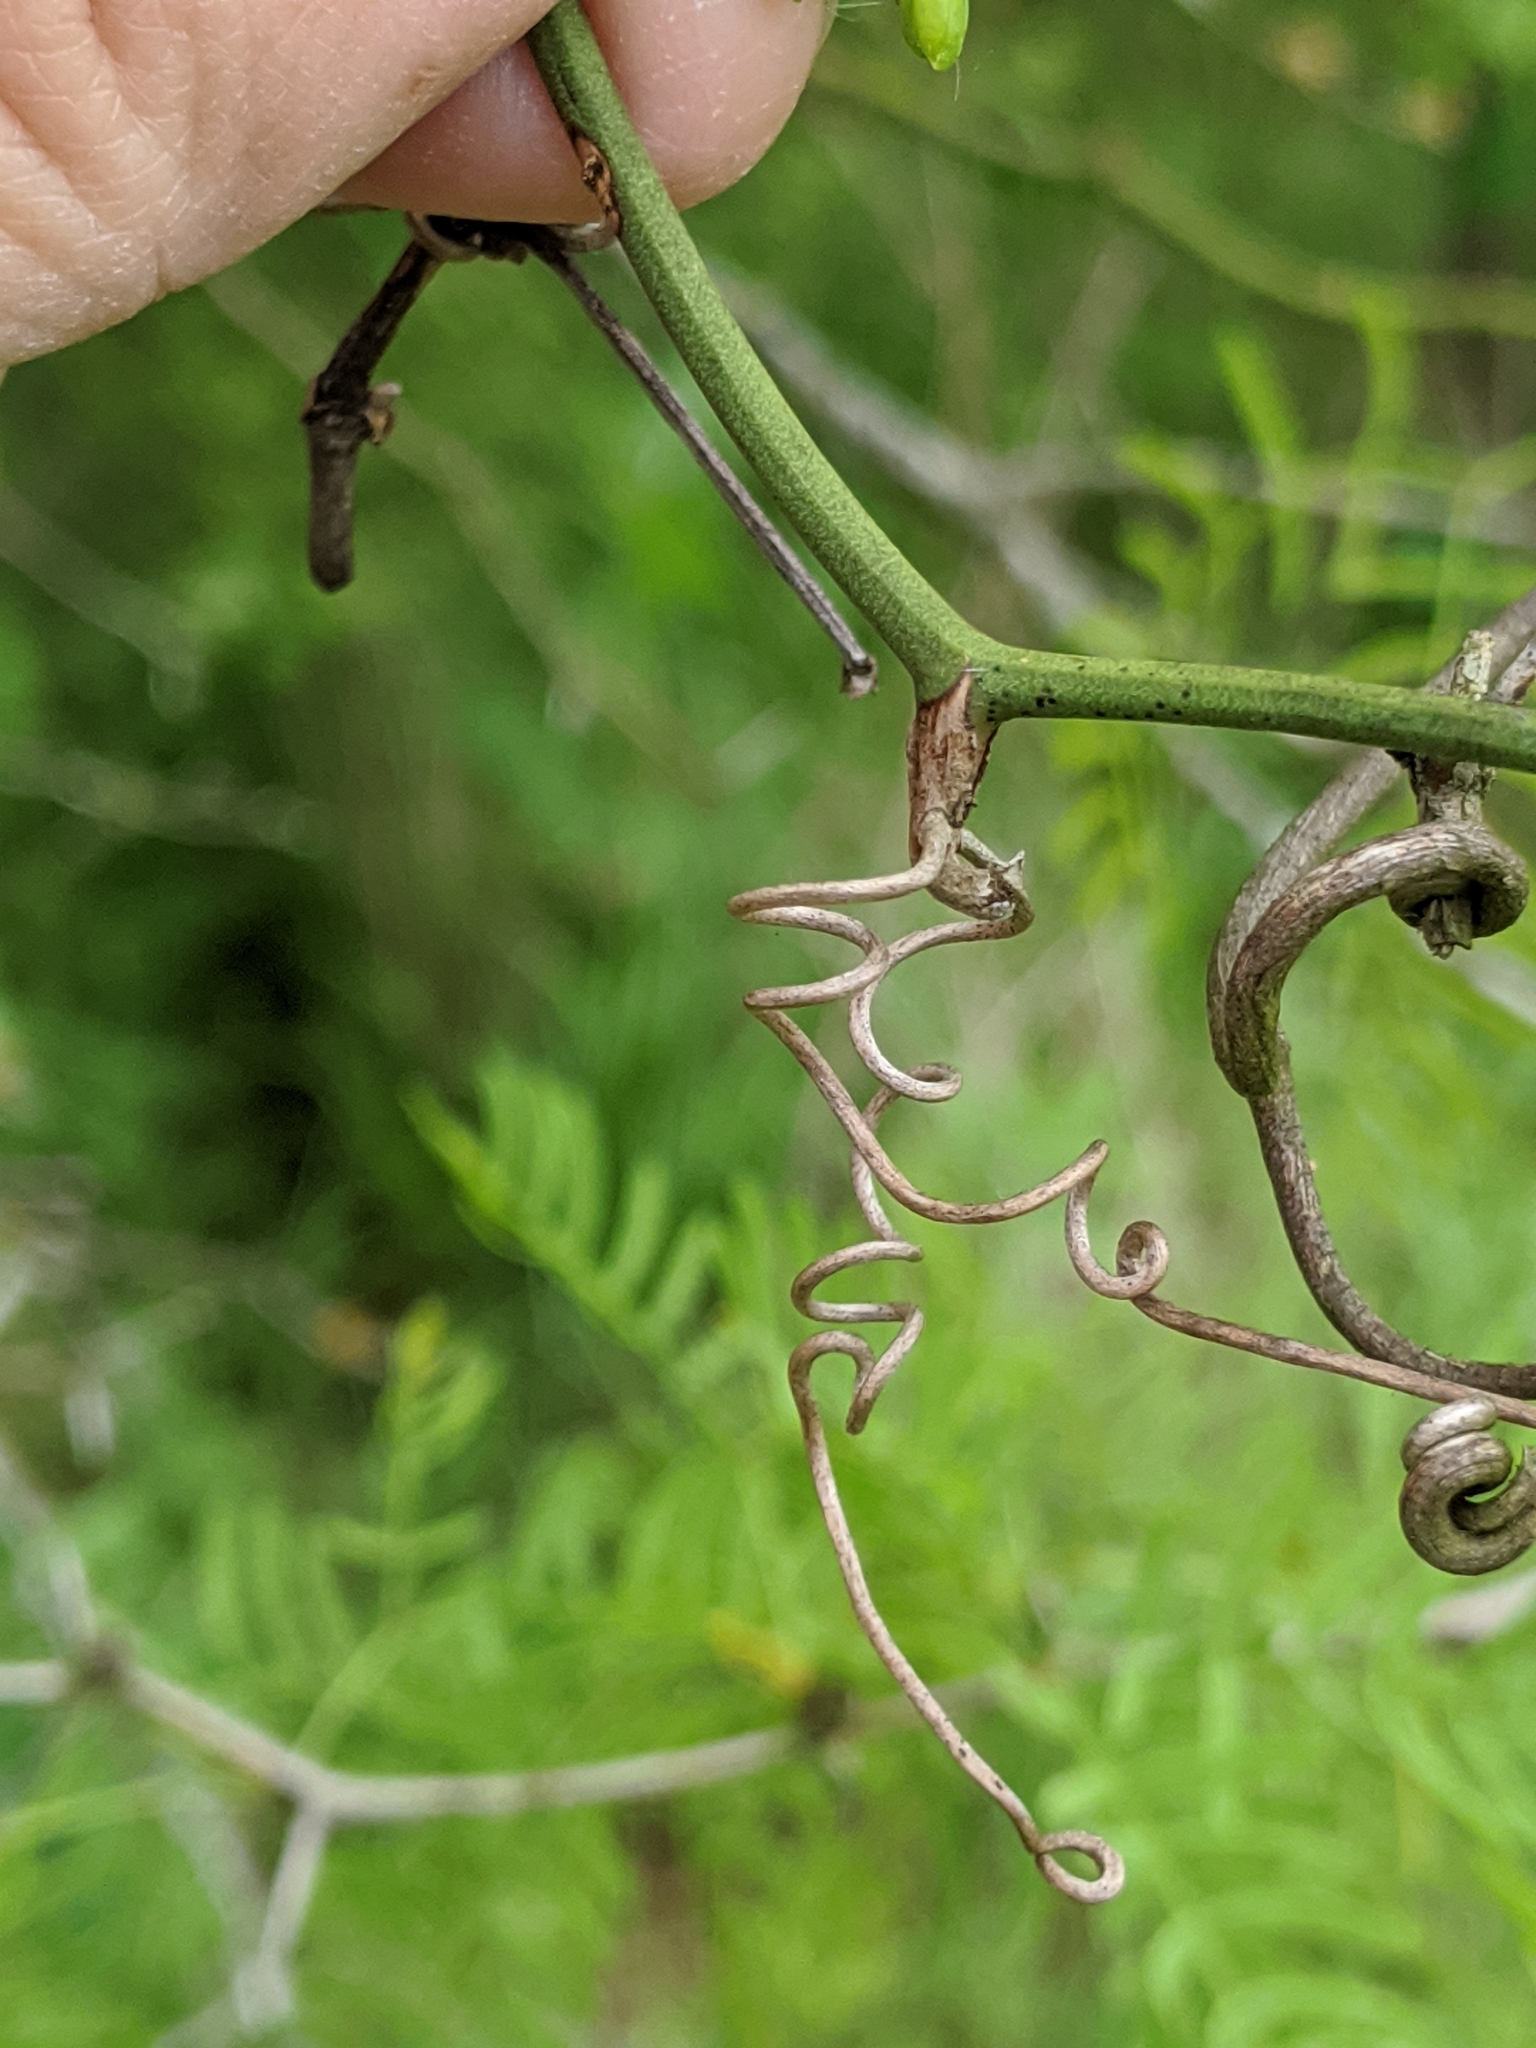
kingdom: Plantae
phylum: Tracheophyta
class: Magnoliopsida
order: Vitales
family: Vitaceae
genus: Vitis
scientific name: Vitis mustangensis
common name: Mustang grape
